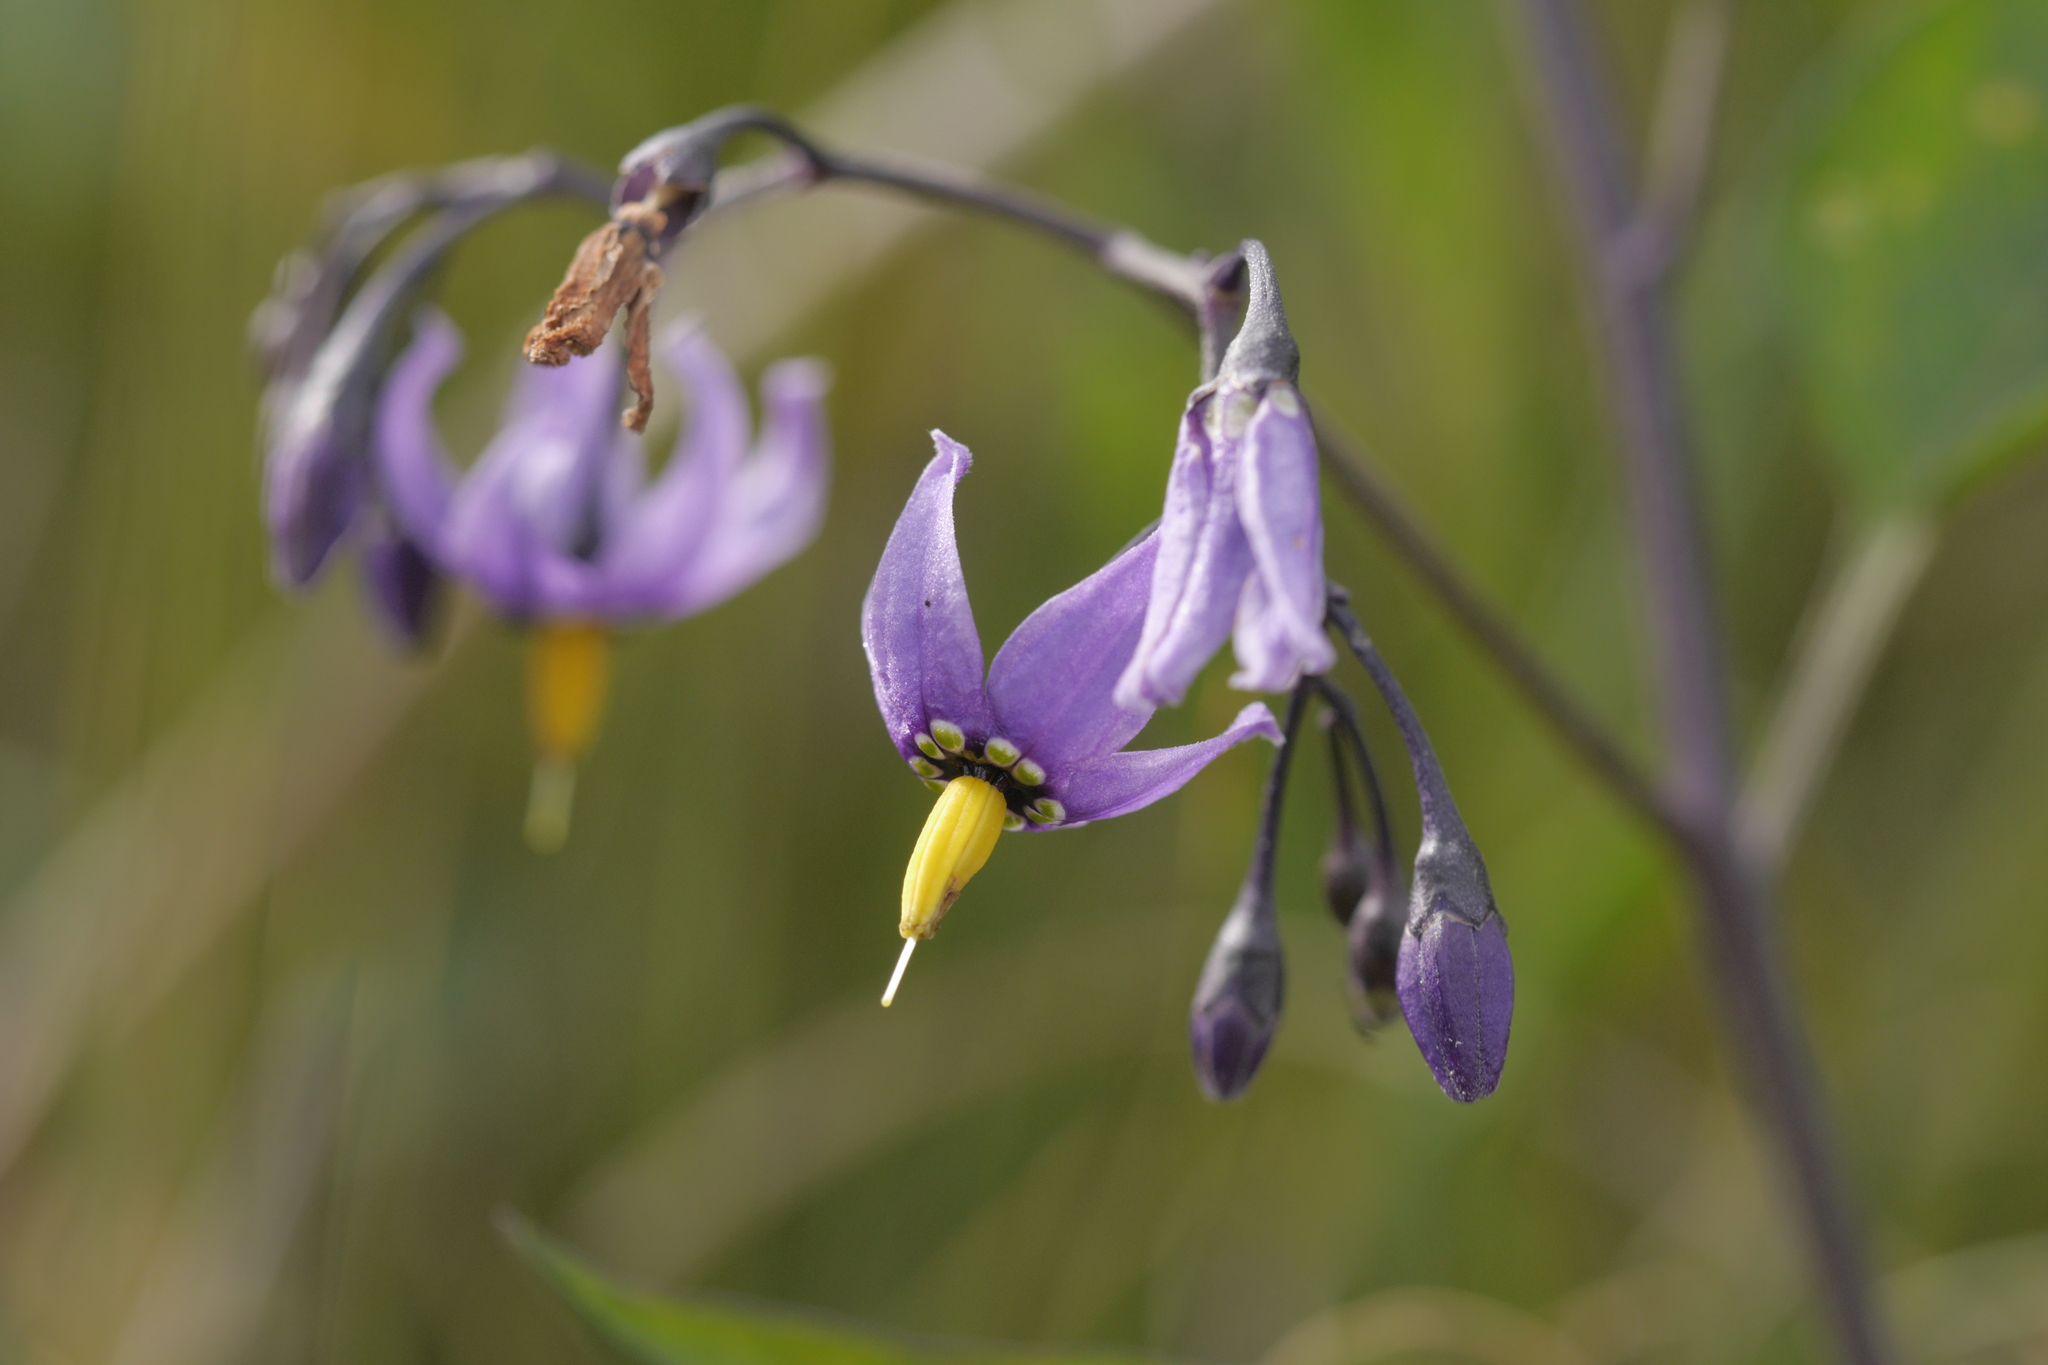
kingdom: Plantae
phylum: Tracheophyta
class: Magnoliopsida
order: Solanales
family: Solanaceae
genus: Solanum
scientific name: Solanum dulcamara
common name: Climbing nightshade
